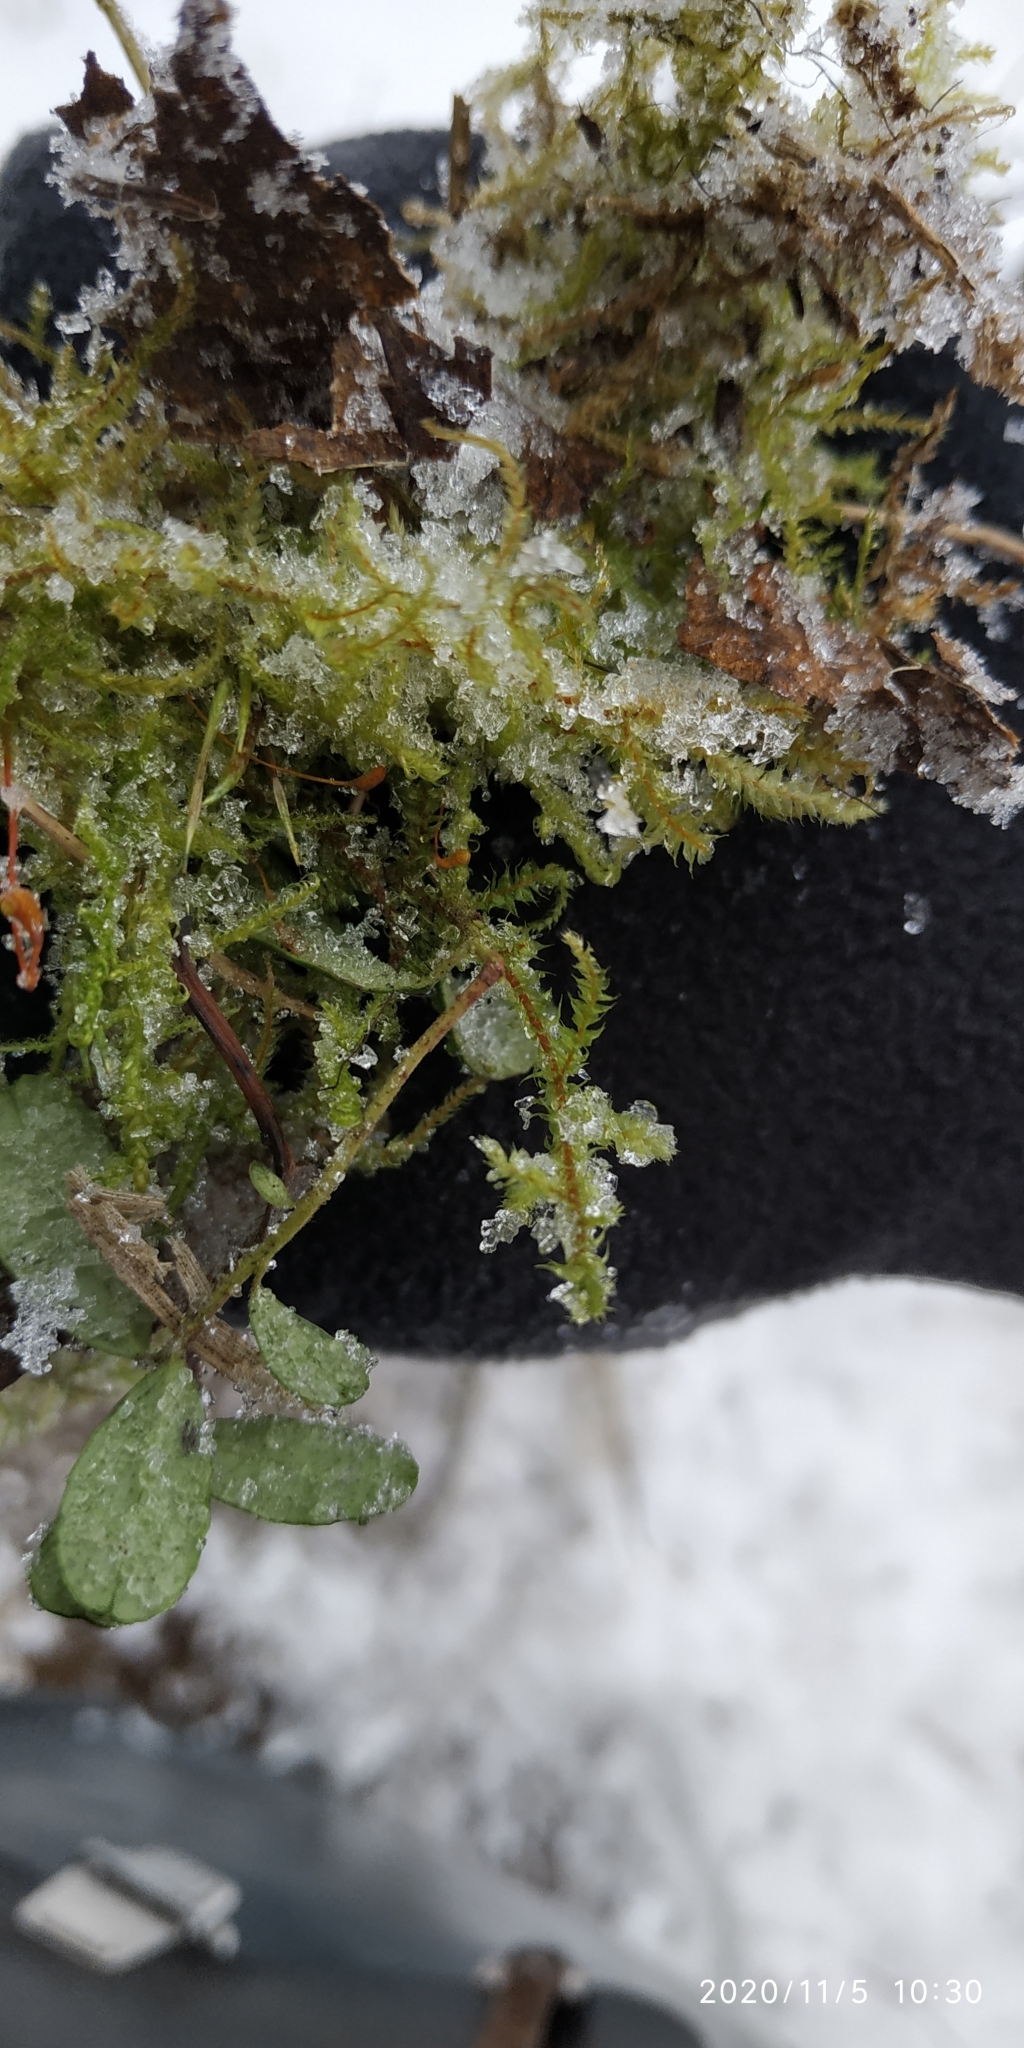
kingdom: Plantae
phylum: Bryophyta
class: Bryopsida
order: Hypnales
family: Hylocomiaceae
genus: Hylocomiadelphus
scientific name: Hylocomiadelphus triquetrus
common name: Rough goose neck moss
